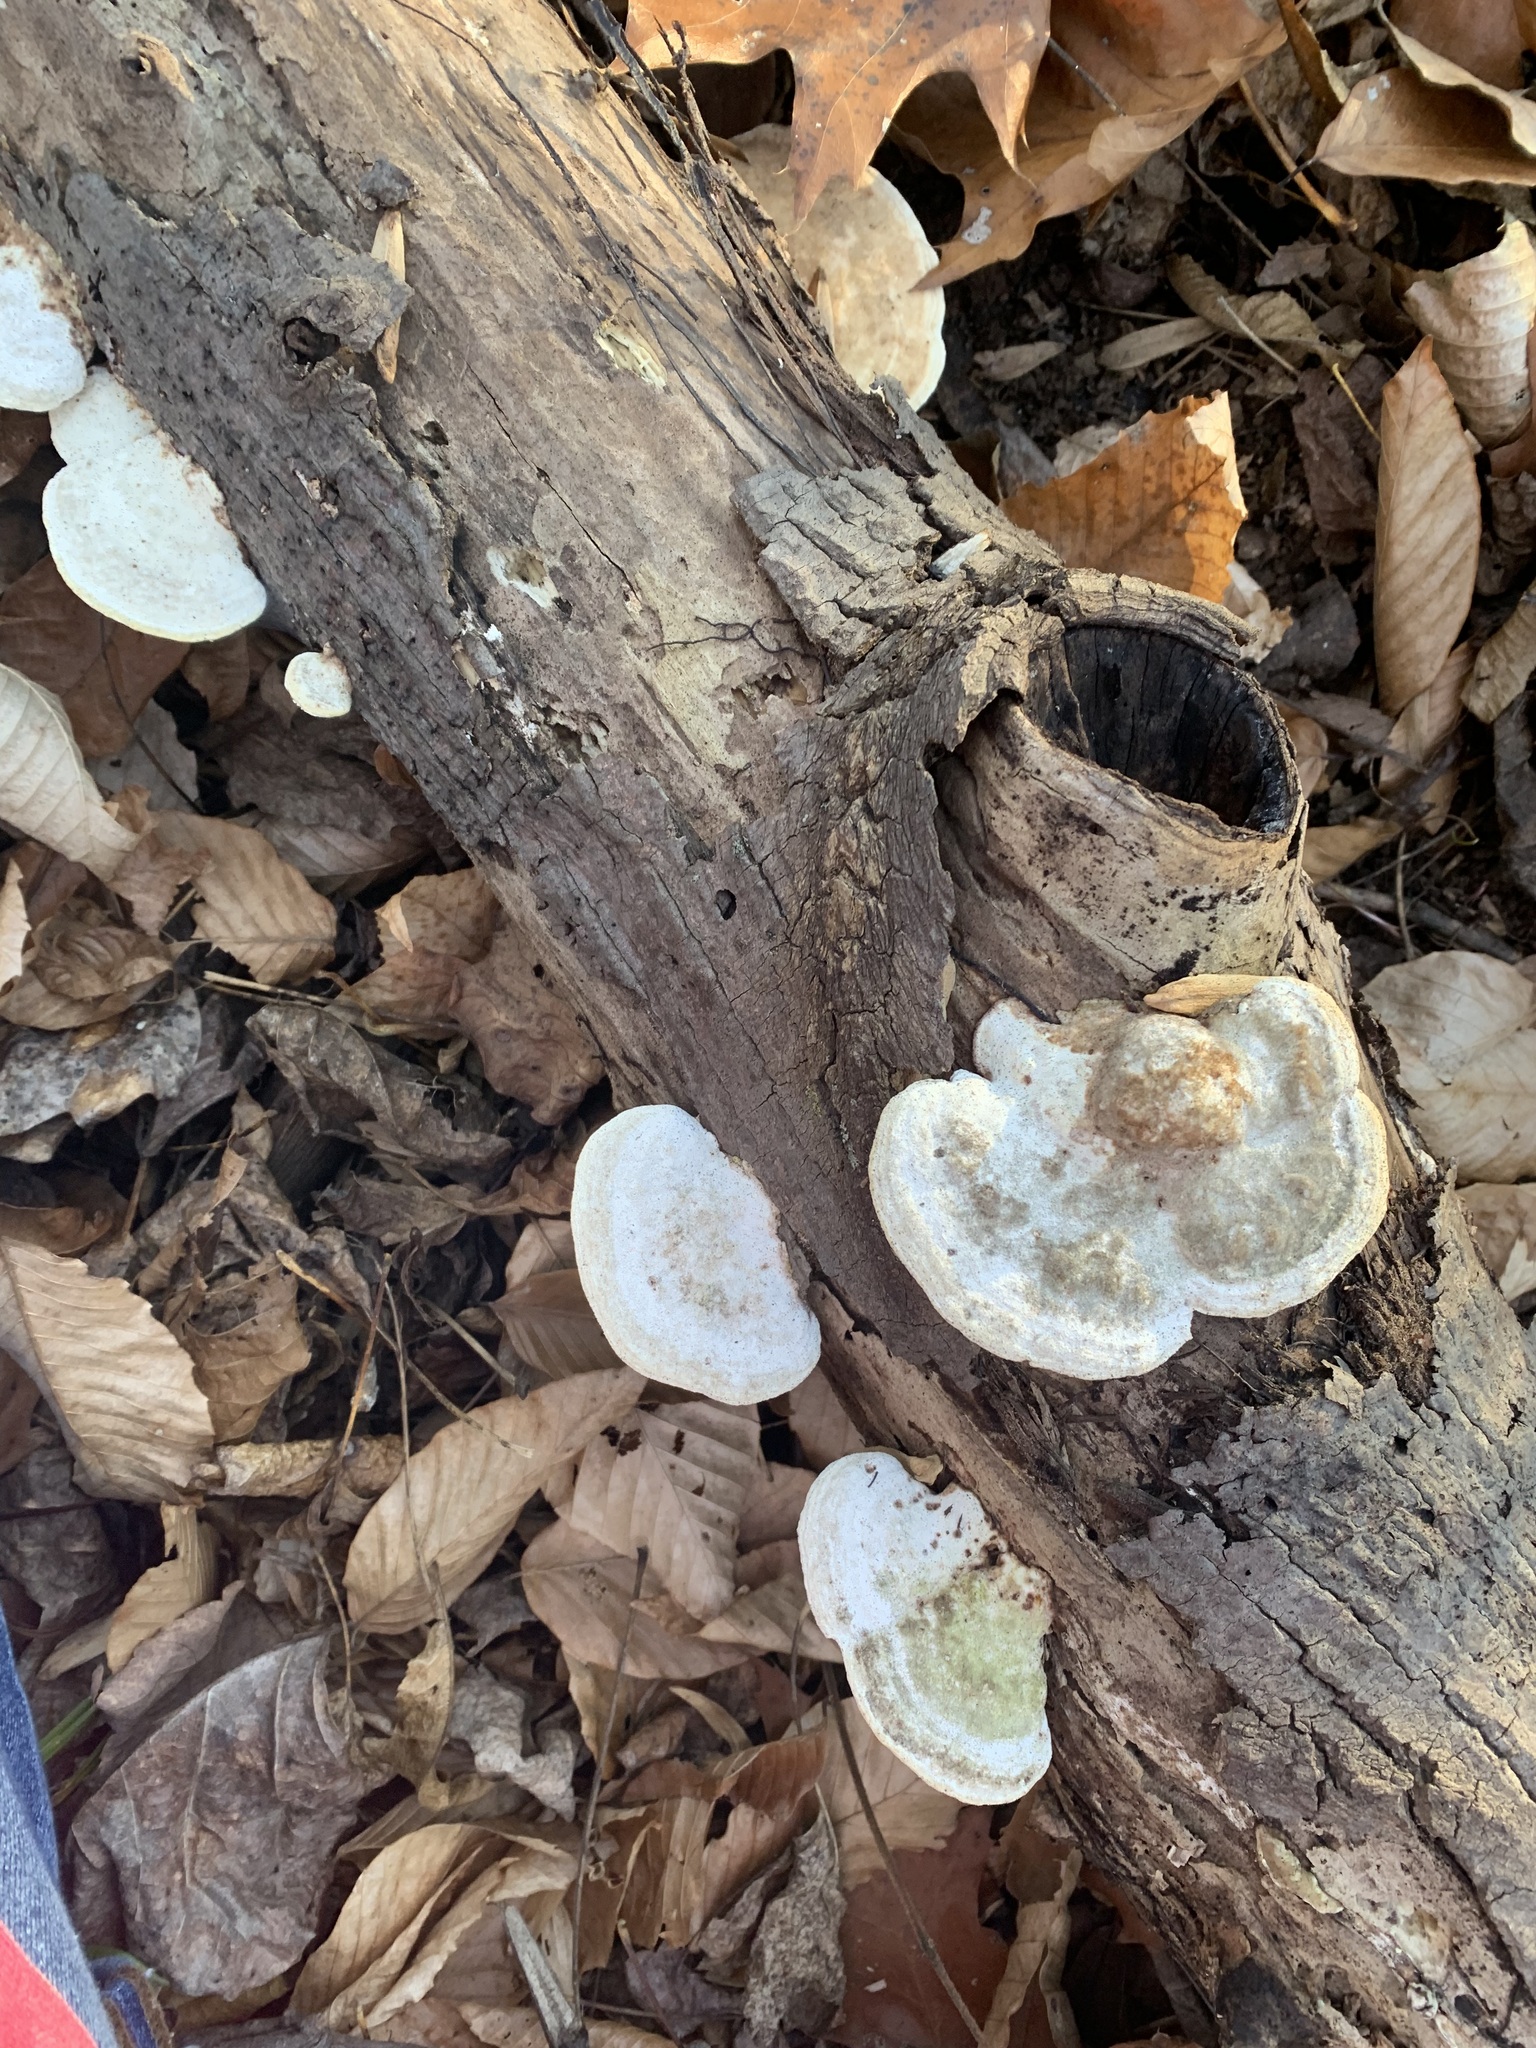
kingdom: Fungi
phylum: Basidiomycota
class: Agaricomycetes
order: Polyporales
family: Polyporaceae
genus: Trametes
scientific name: Trametes gibbosa
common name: Lumpy bracket
